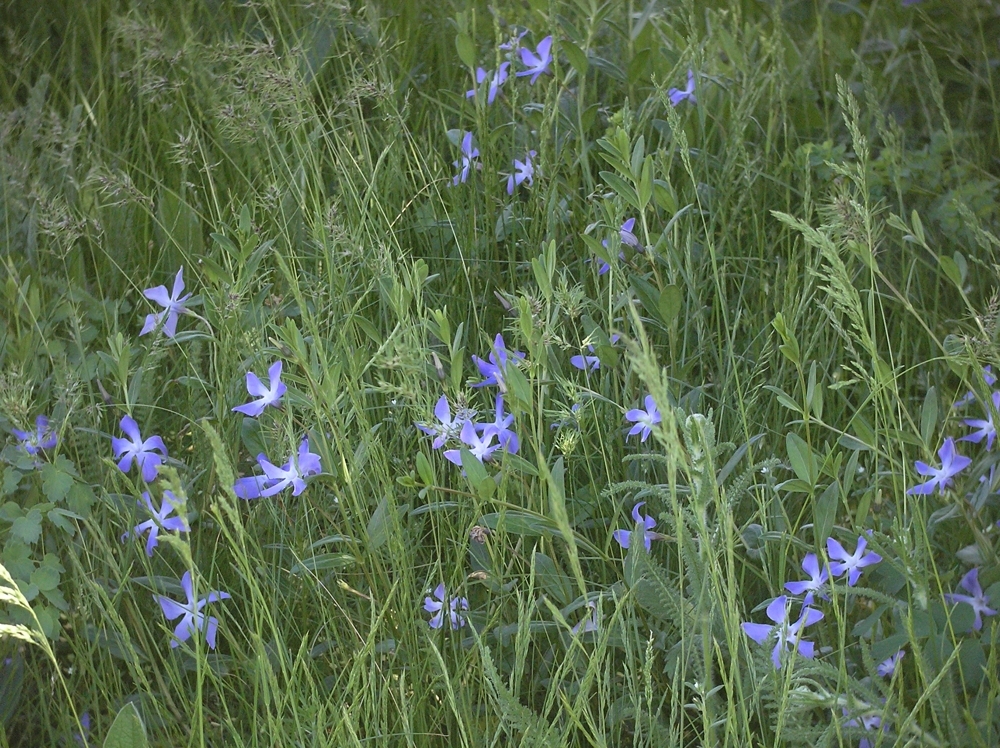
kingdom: Plantae
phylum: Tracheophyta
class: Magnoliopsida
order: Gentianales
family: Apocynaceae
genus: Vinca
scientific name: Vinca herbacea
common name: Herbaceous periwinkle
